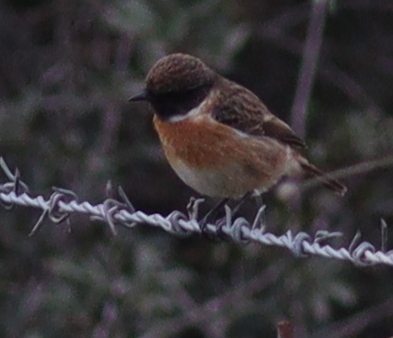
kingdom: Animalia
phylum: Chordata
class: Aves
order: Passeriformes
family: Muscicapidae
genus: Saxicola
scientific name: Saxicola rubicola
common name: European stonechat
